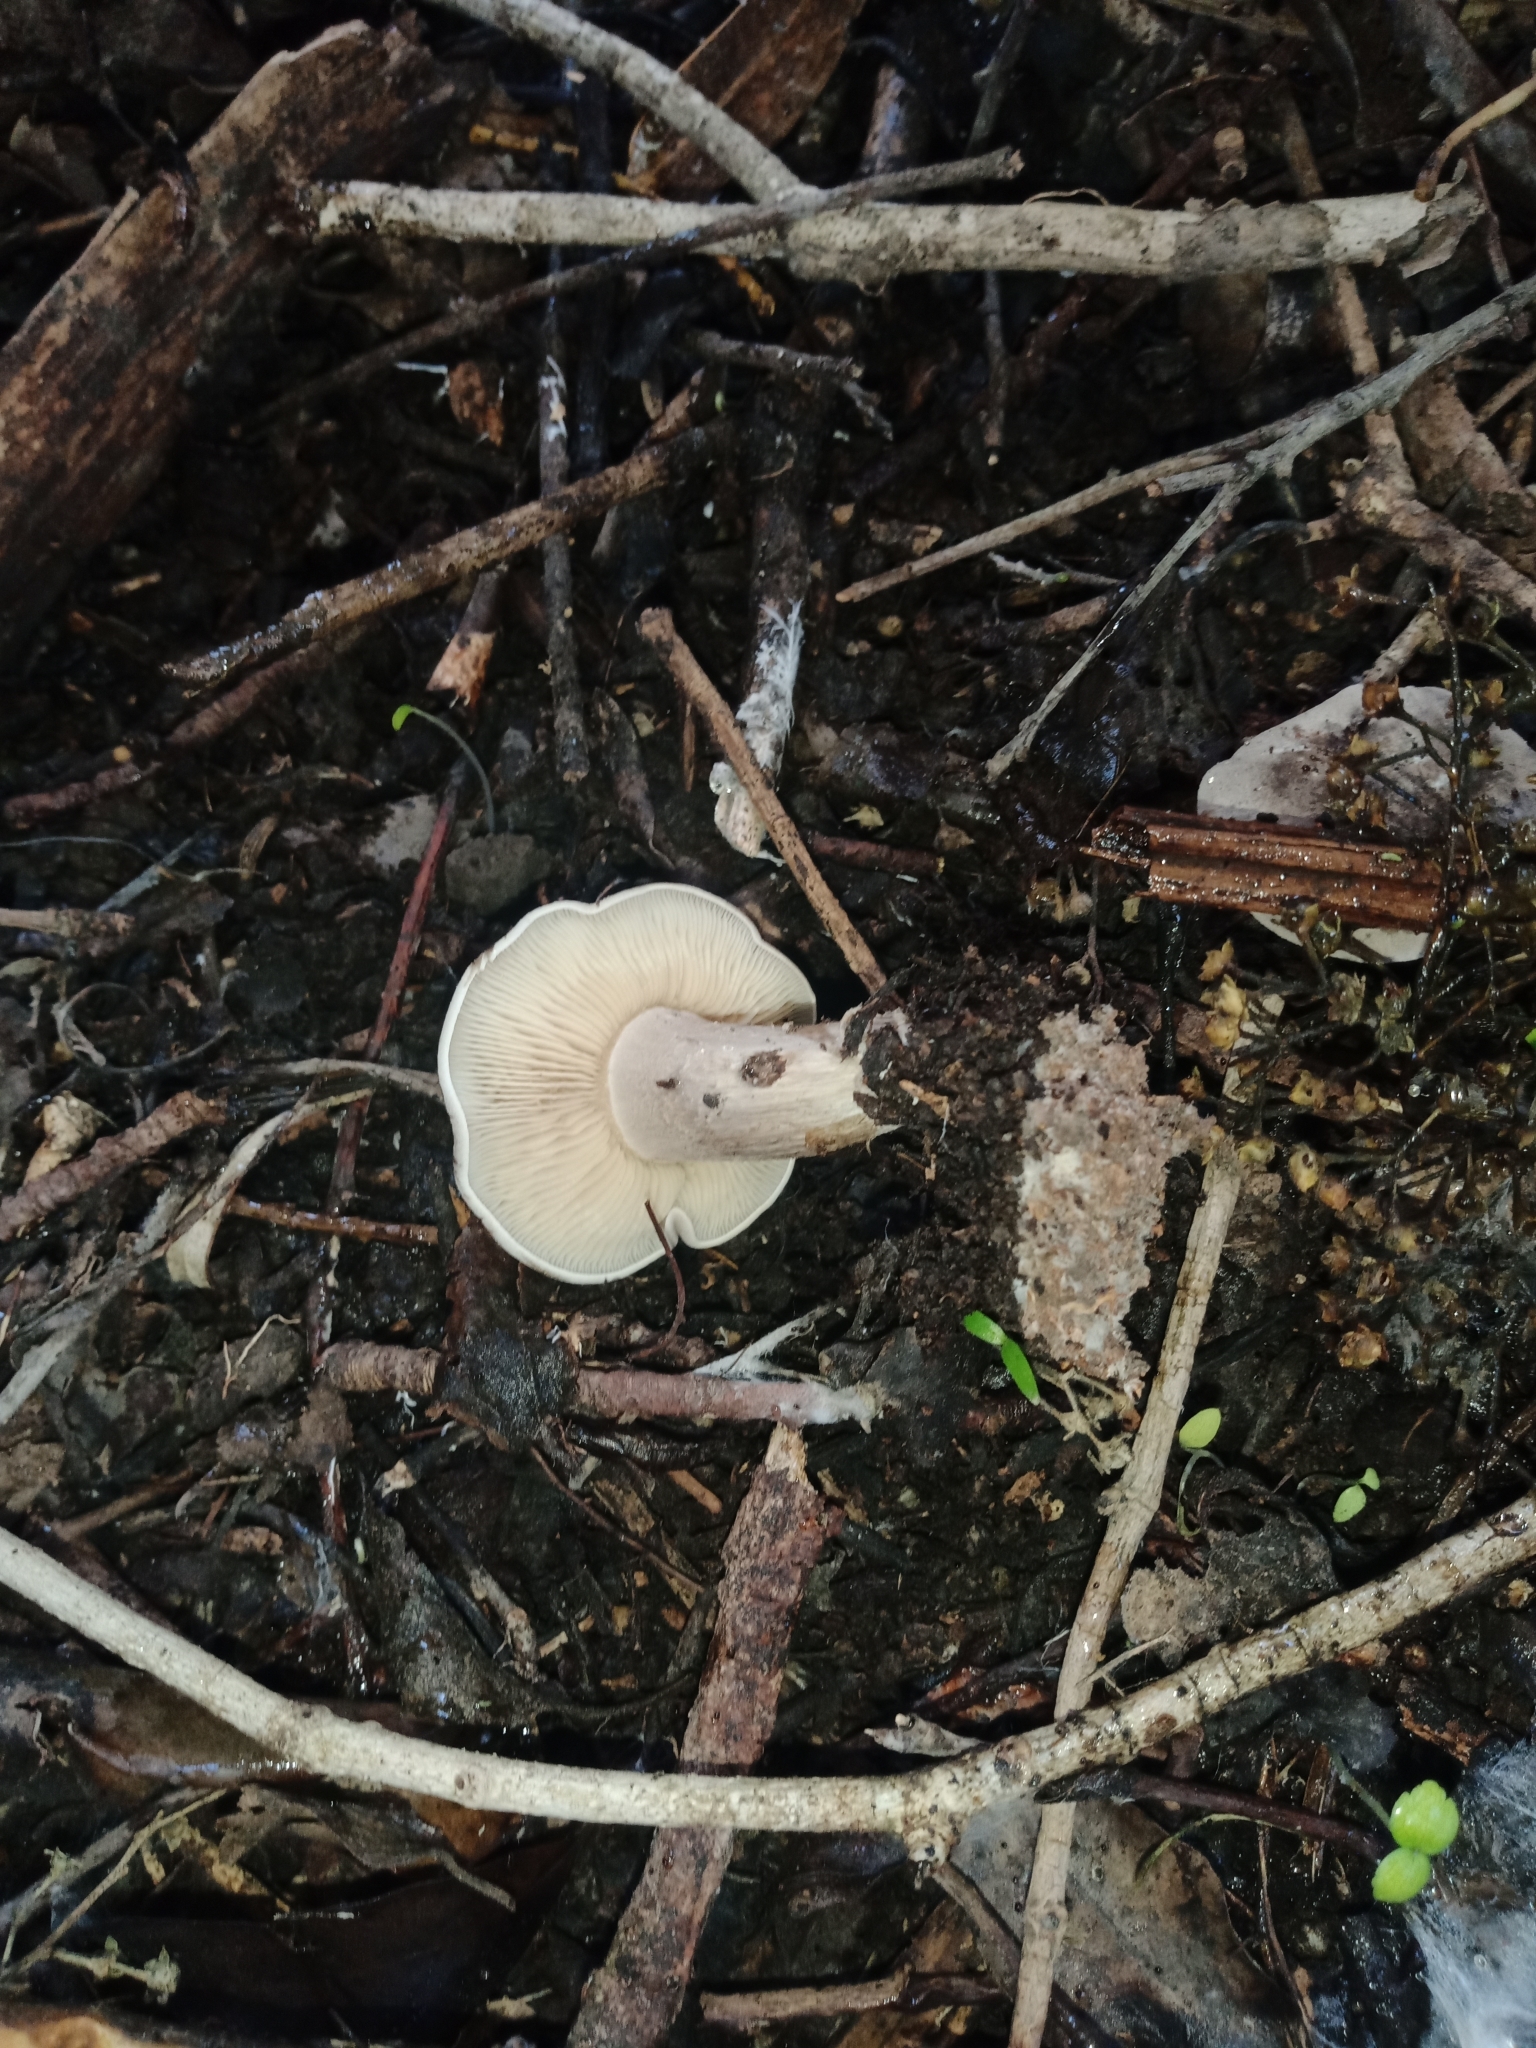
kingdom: Fungi
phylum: Basidiomycota
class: Agaricomycetes
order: Agaricales
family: Tricholomataceae
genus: Tricholoma
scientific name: Tricholoma terreum
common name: Grey knight
